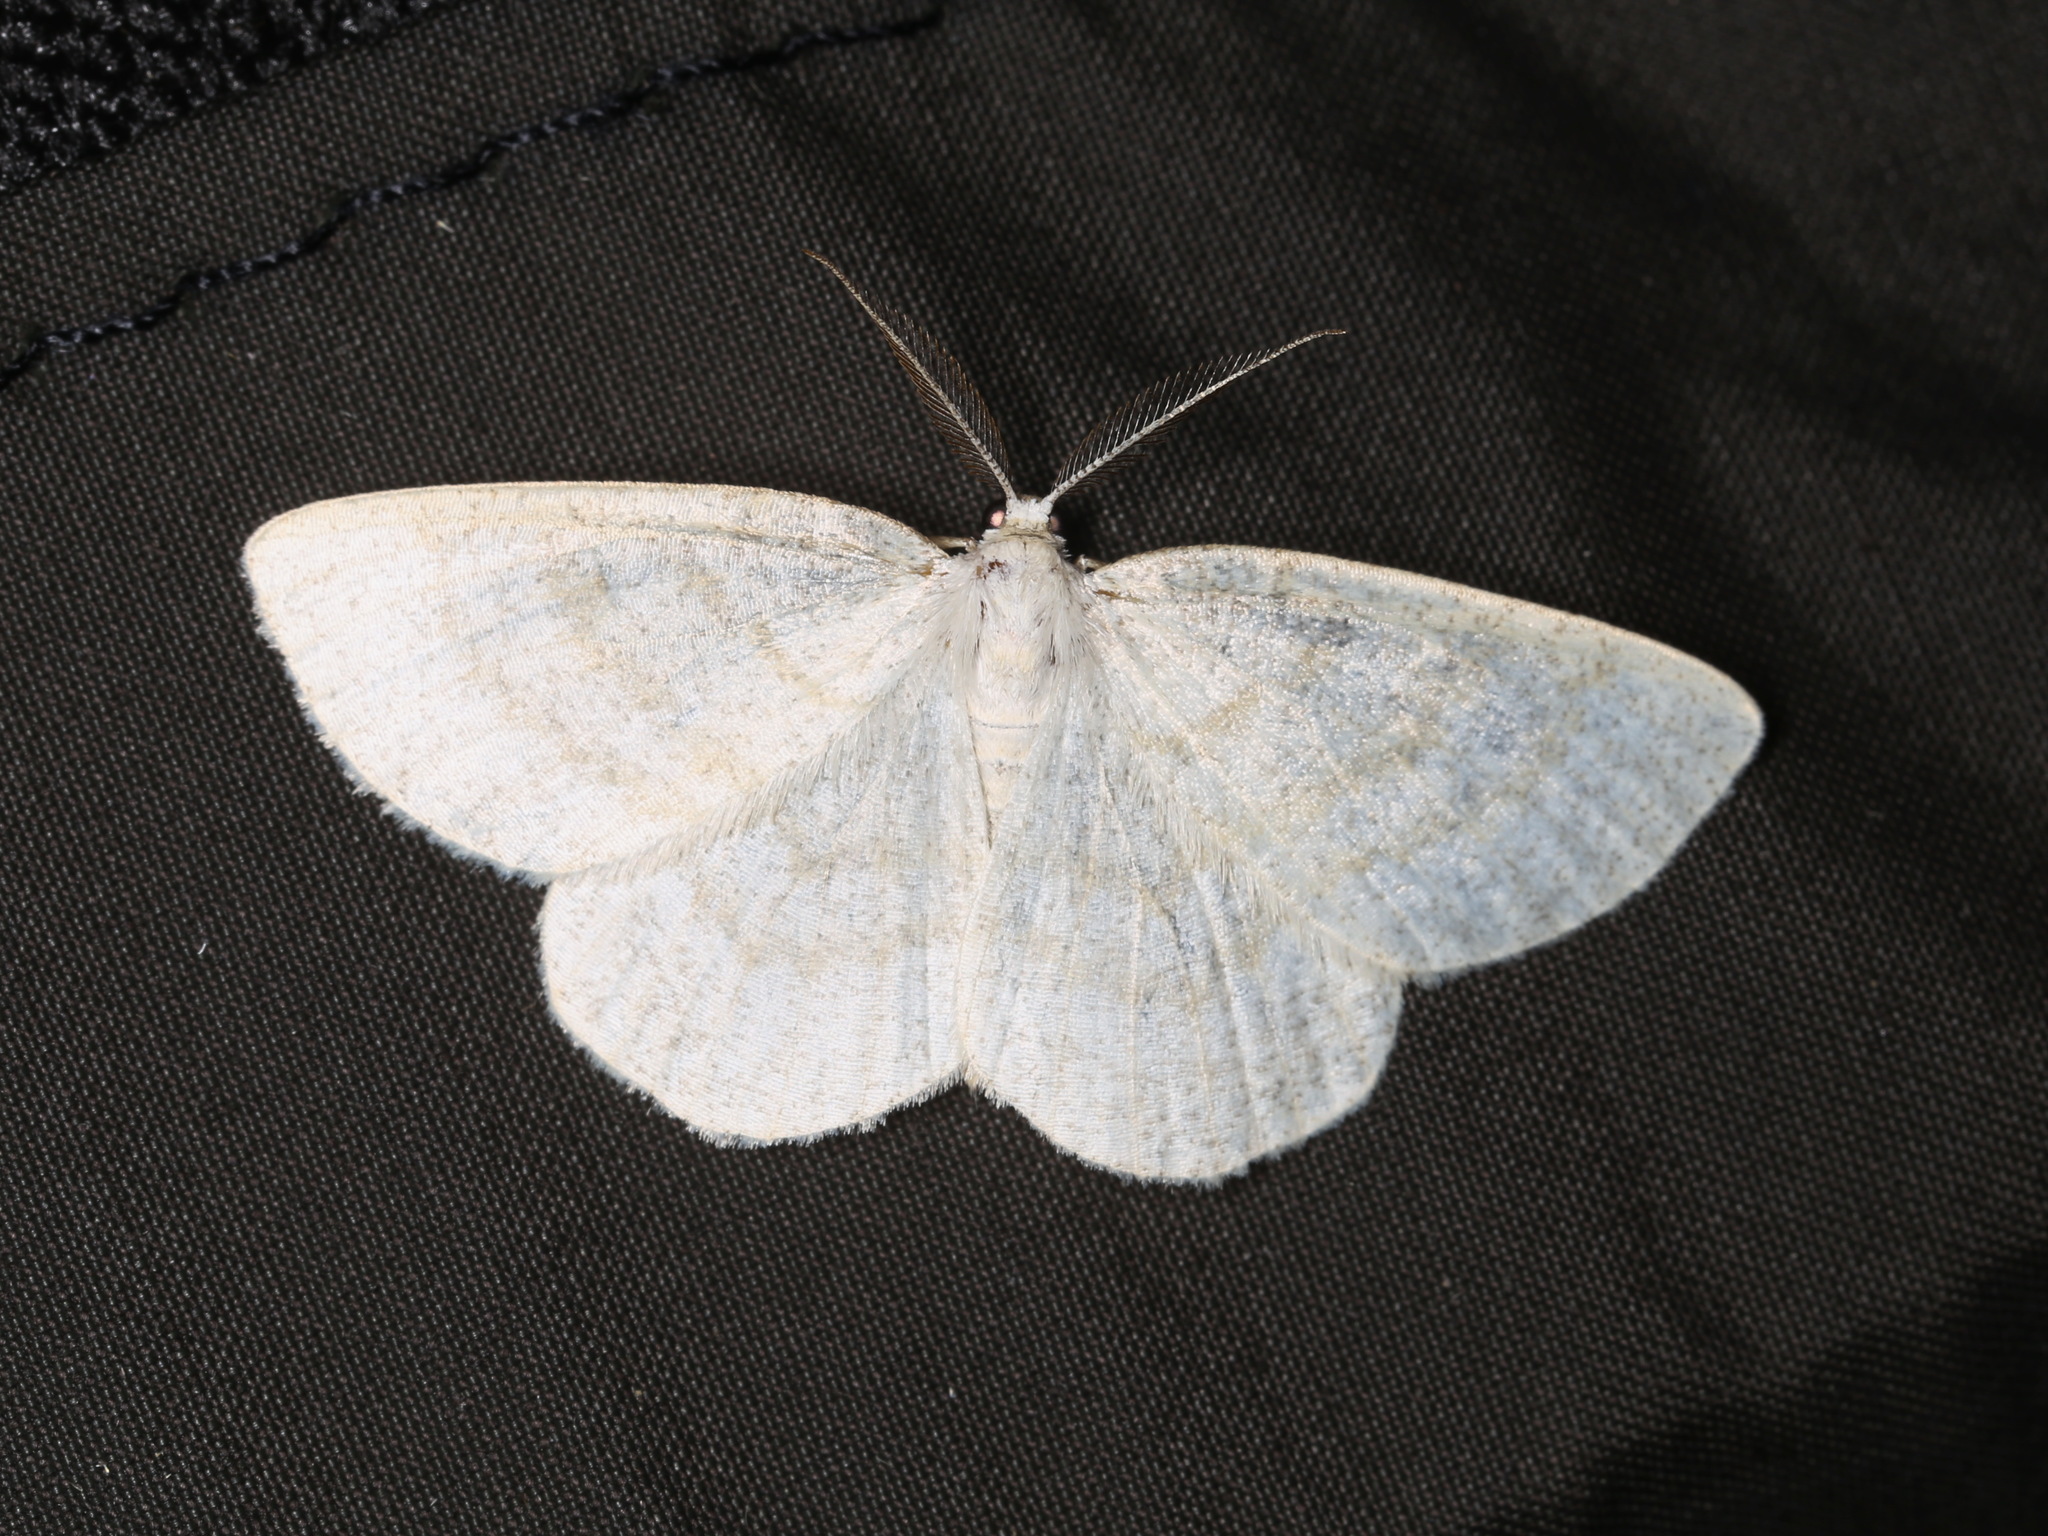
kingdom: Animalia
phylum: Arthropoda
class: Insecta
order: Lepidoptera
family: Geometridae
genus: Cabera
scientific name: Cabera exanthemata
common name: Common wave
